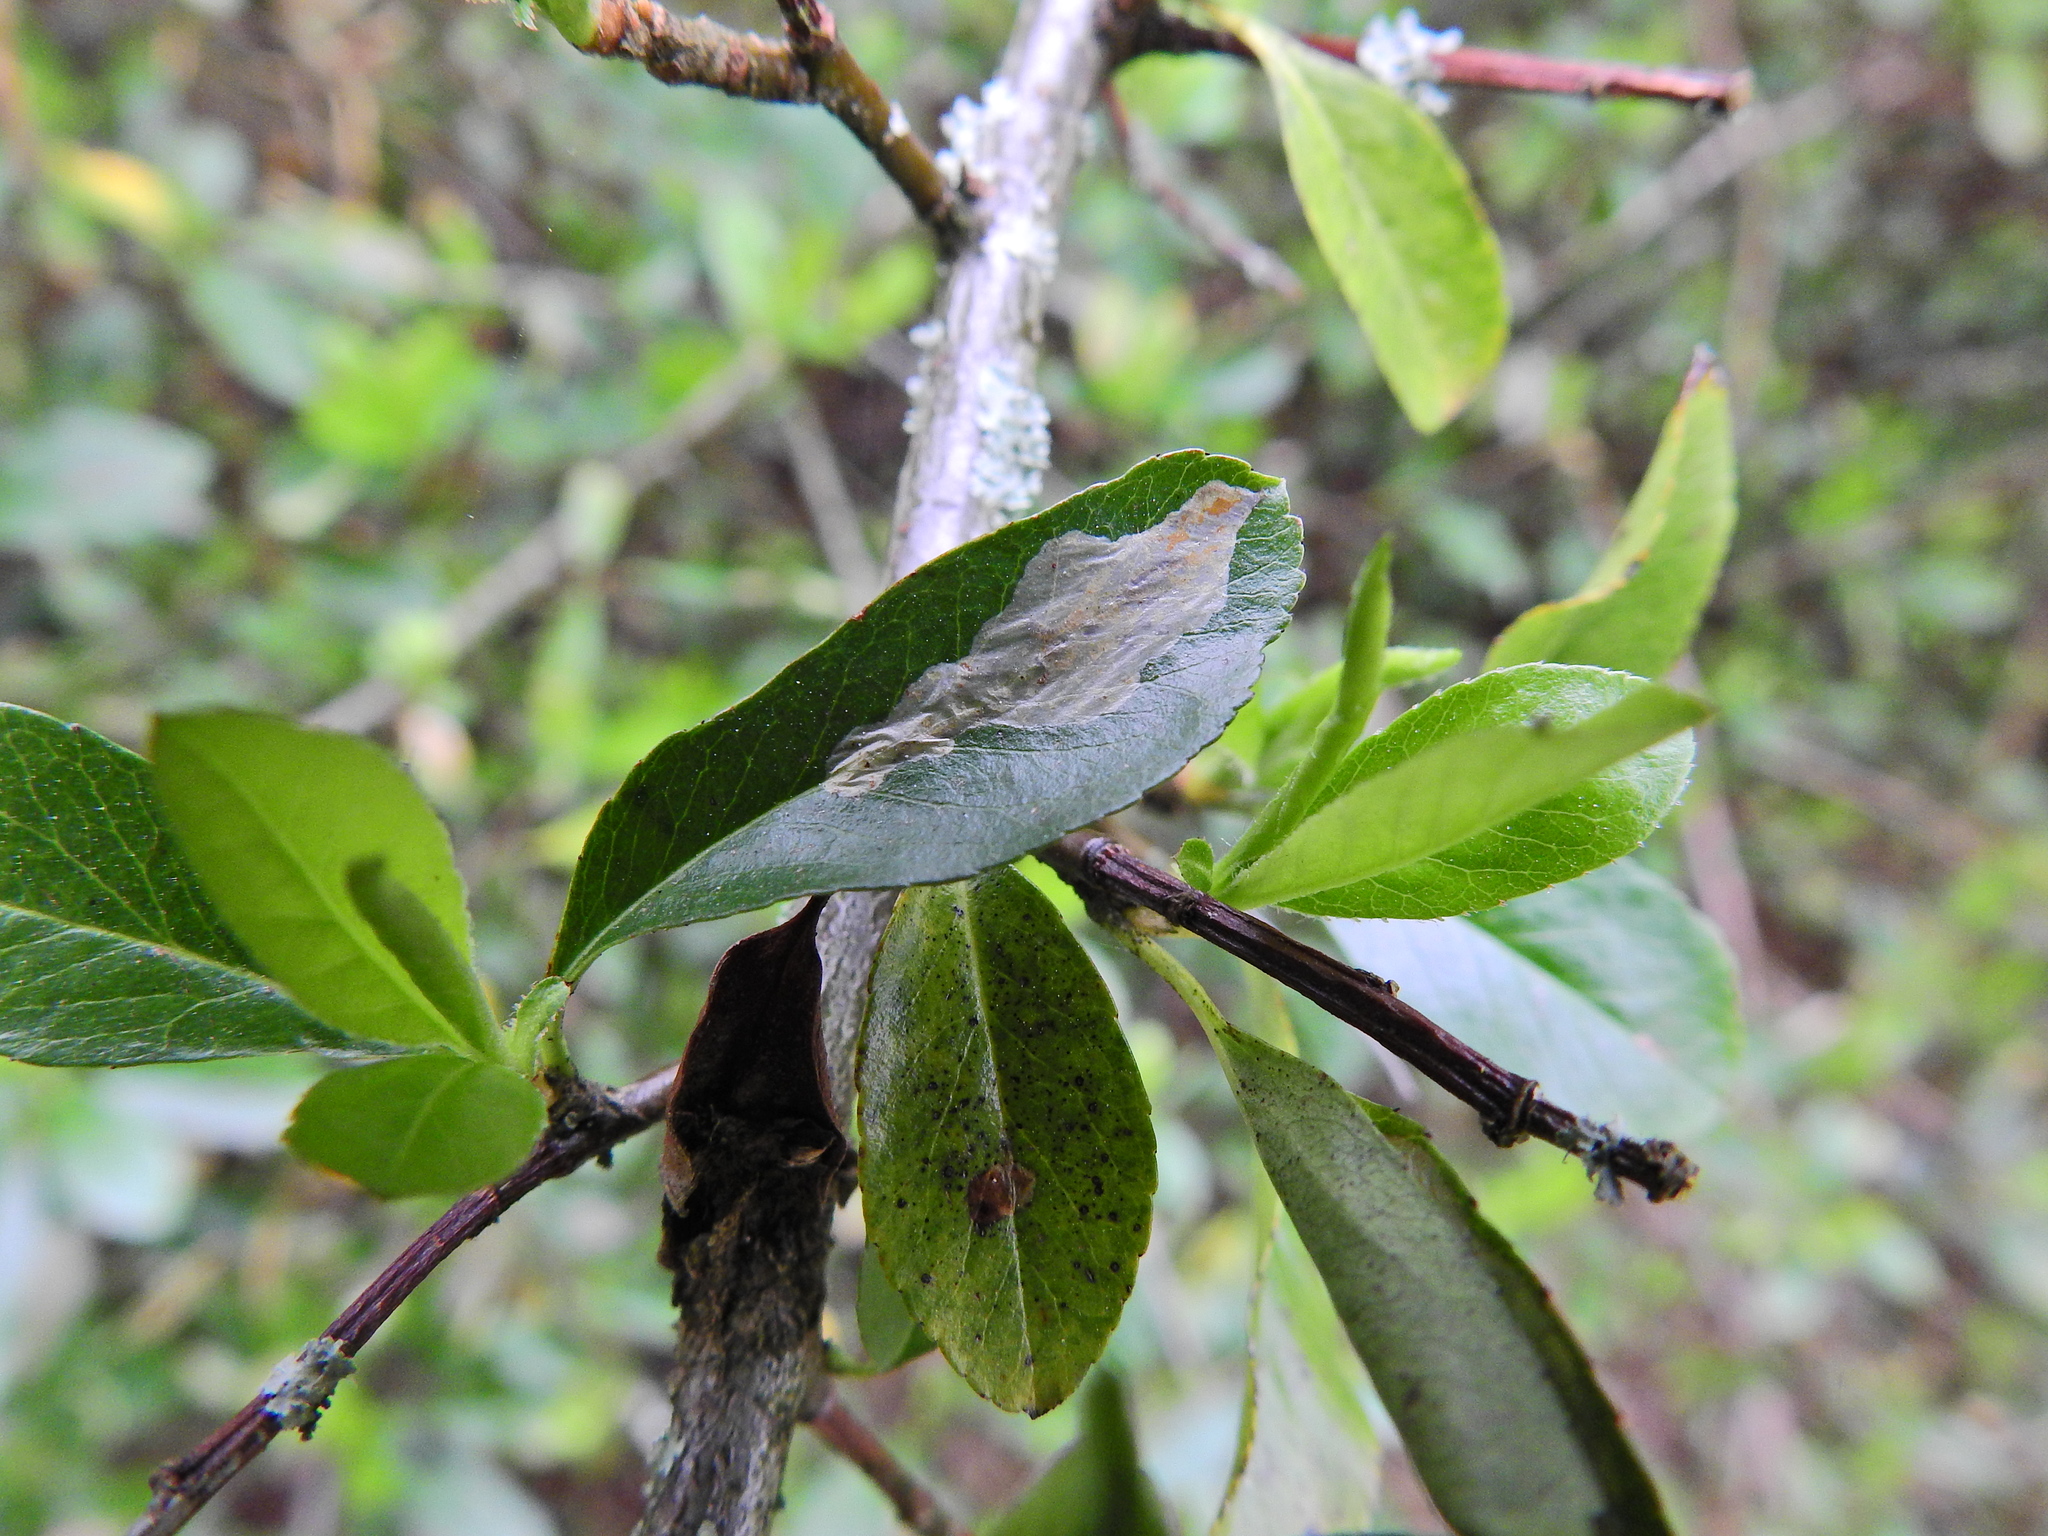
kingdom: Animalia
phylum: Arthropoda
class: Insecta
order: Lepidoptera
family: Gracillariidae
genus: Phyllonorycter
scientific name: Phyllonorycter leucographella
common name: Firethorn leaf-miner
